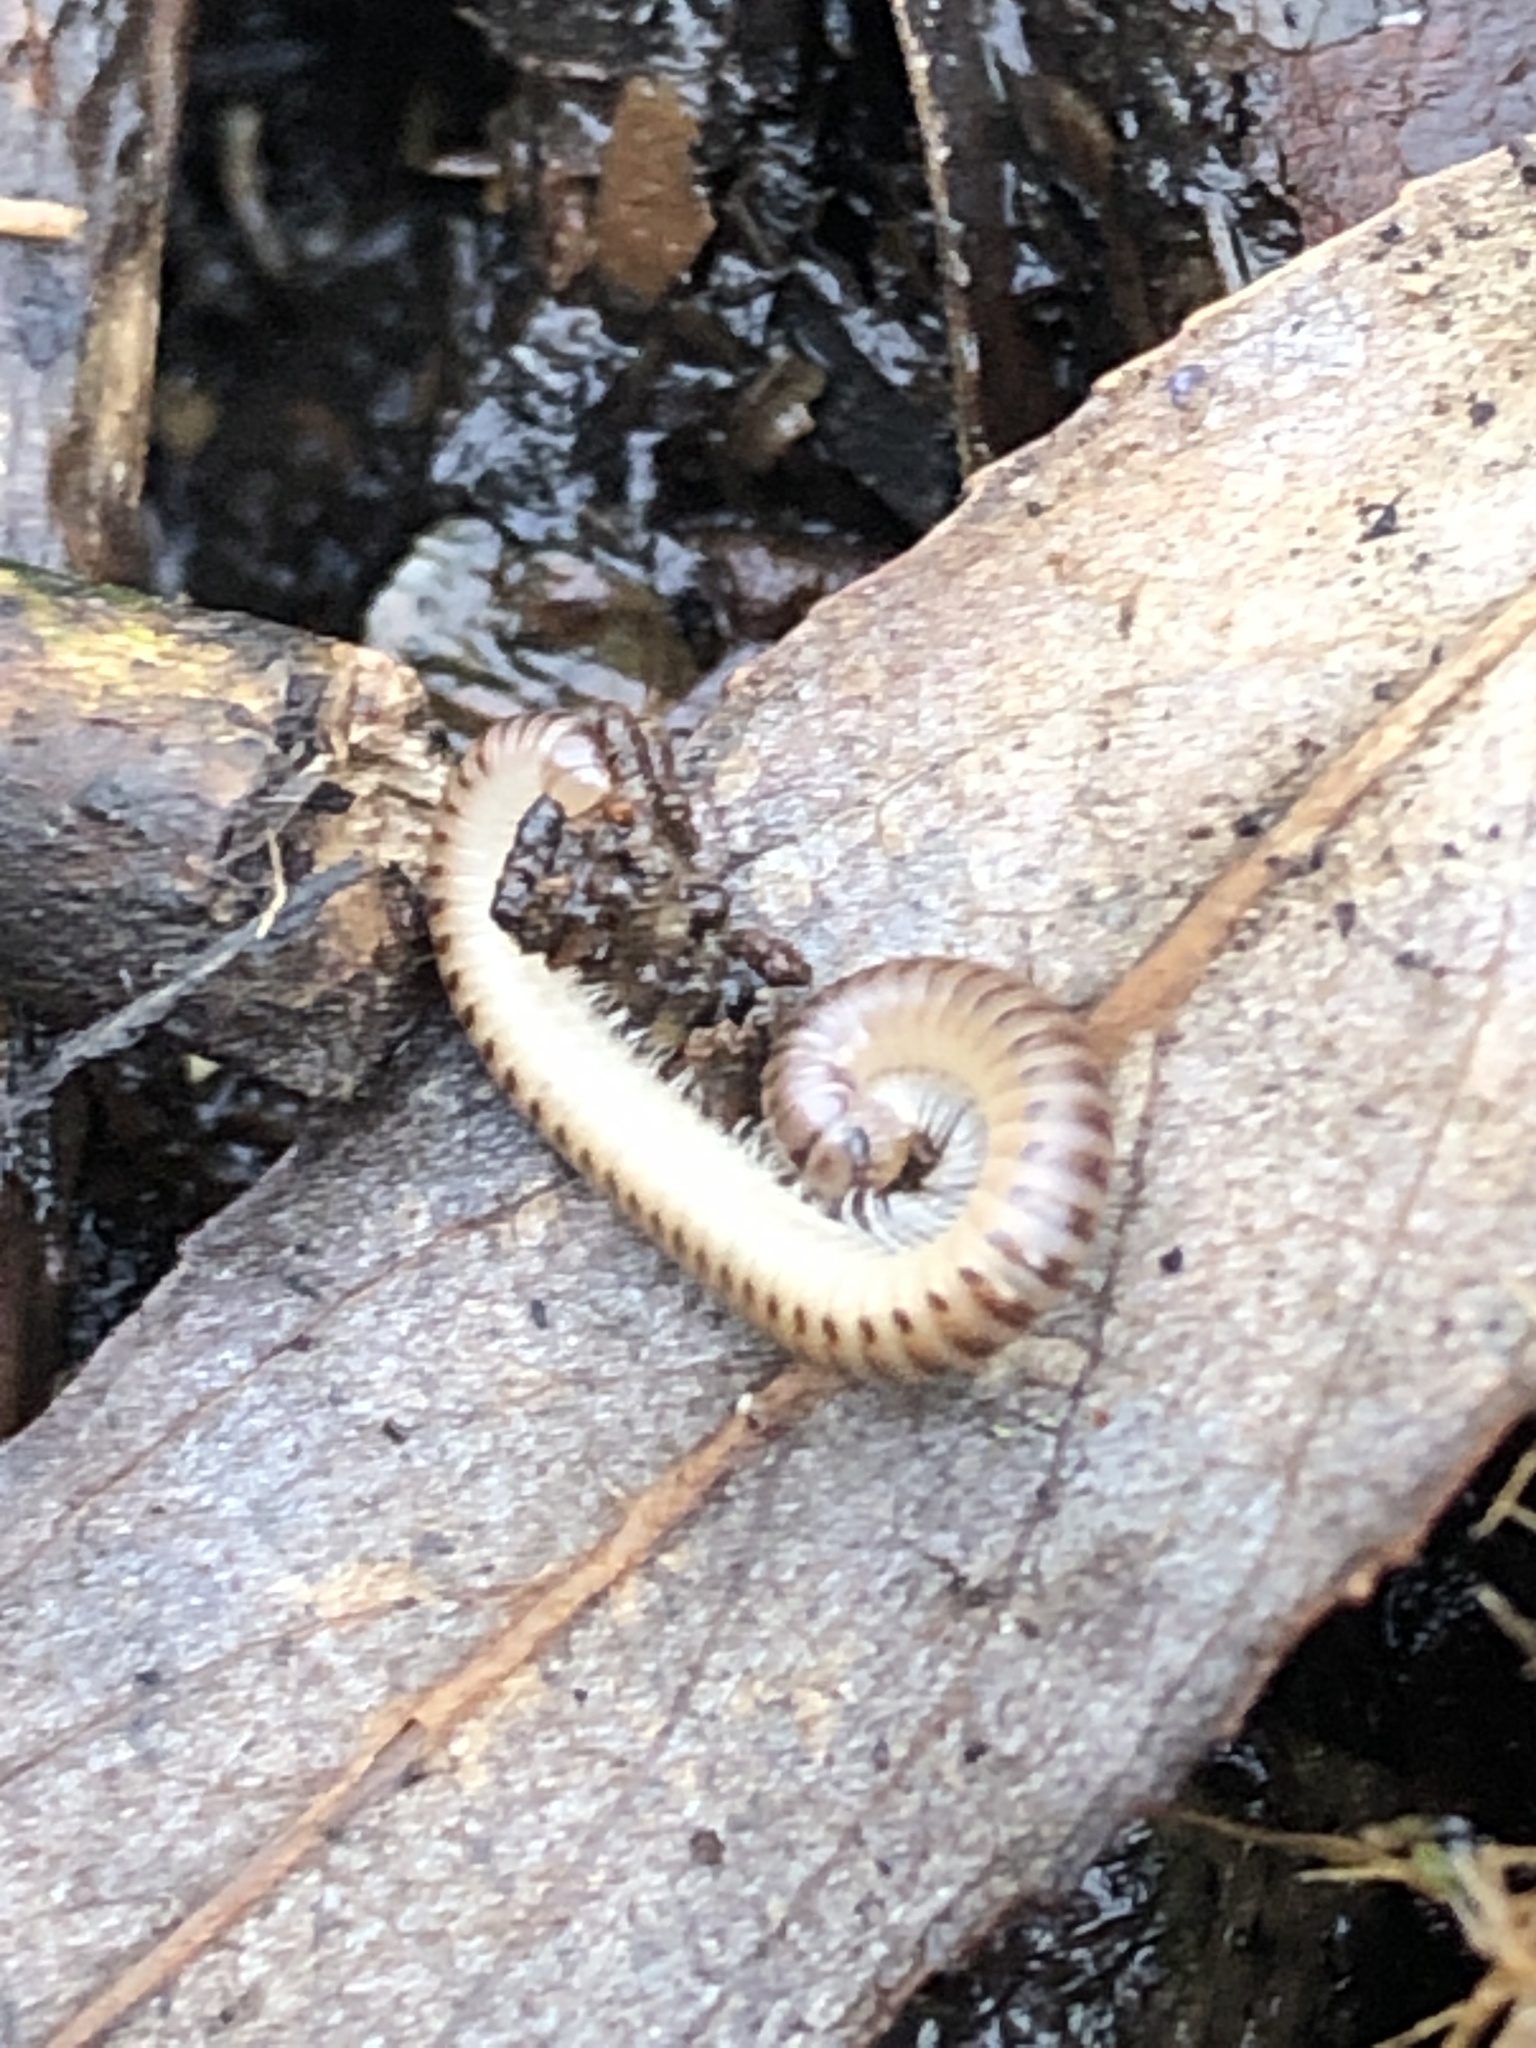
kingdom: Animalia
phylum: Arthropoda
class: Diplopoda
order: Julida
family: Julidae
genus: Cylindroiulus
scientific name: Cylindroiulus punctatus
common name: Blunt-tailed millipede
